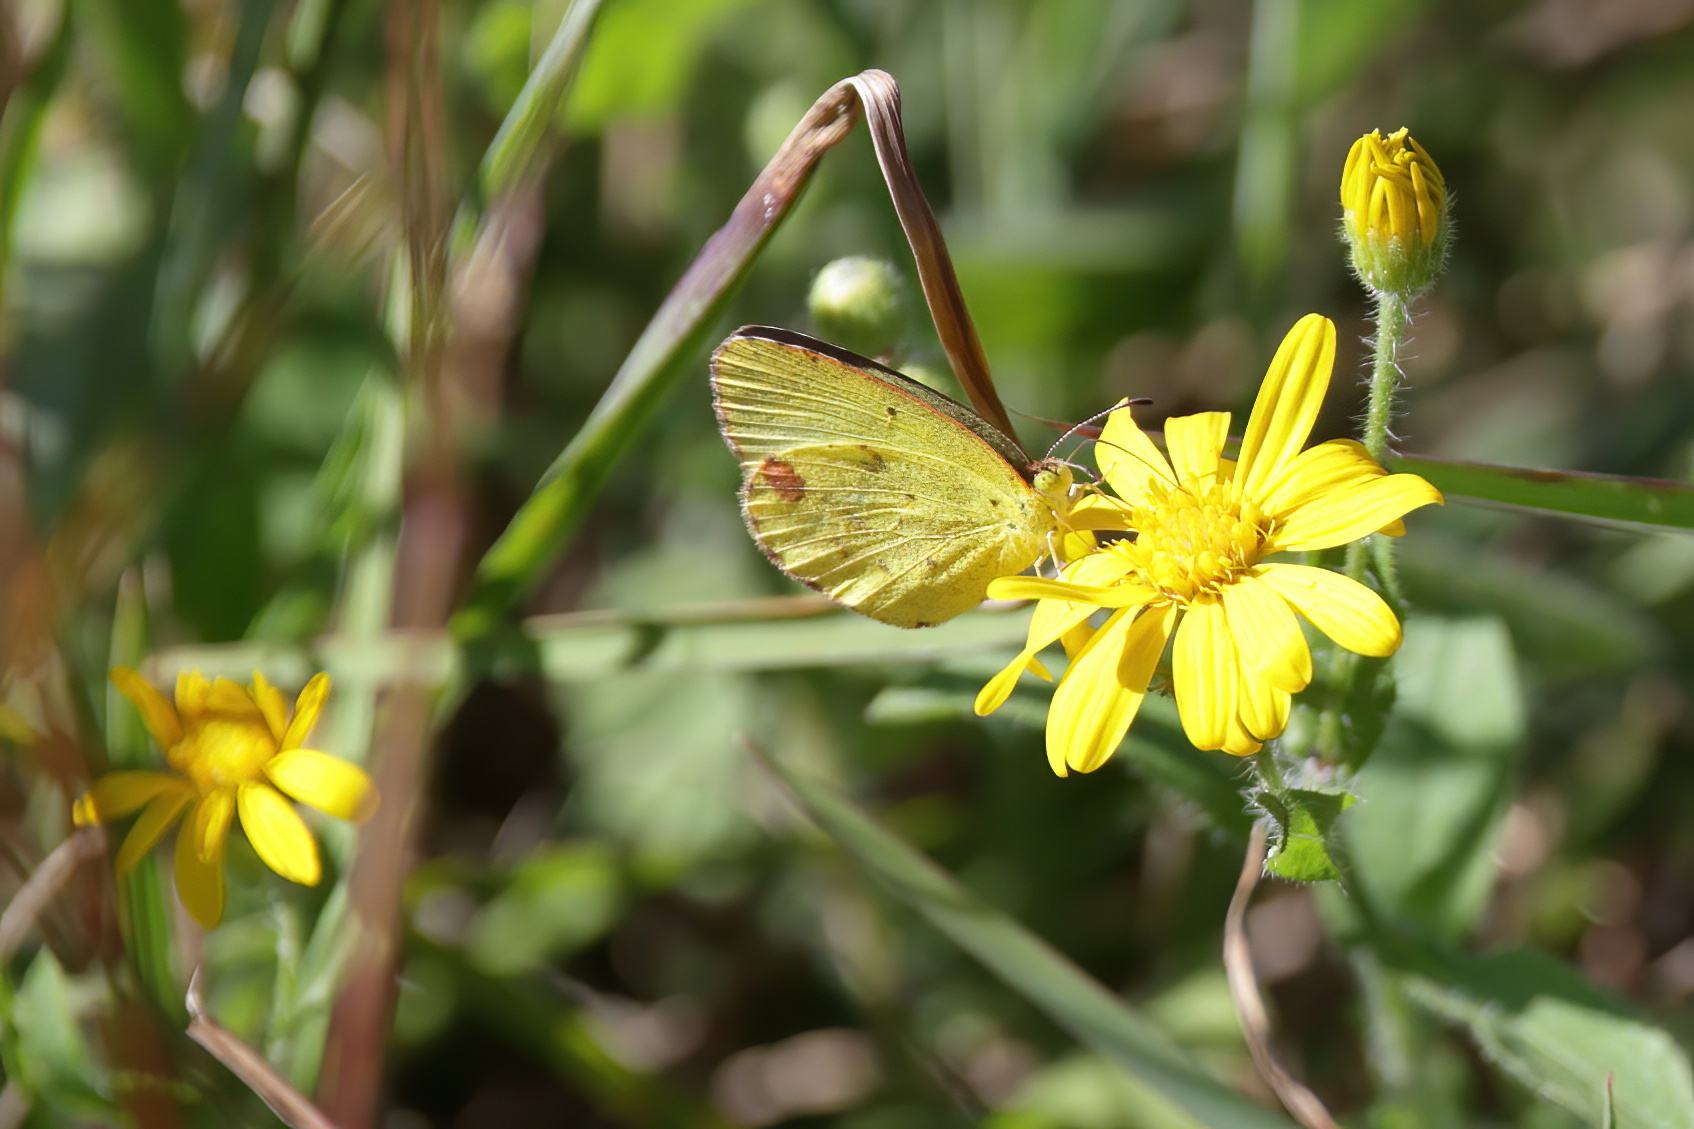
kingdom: Animalia
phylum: Arthropoda
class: Insecta
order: Lepidoptera
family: Pieridae
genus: Pyrisitia
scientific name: Pyrisitia lisa
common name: Little yellow
